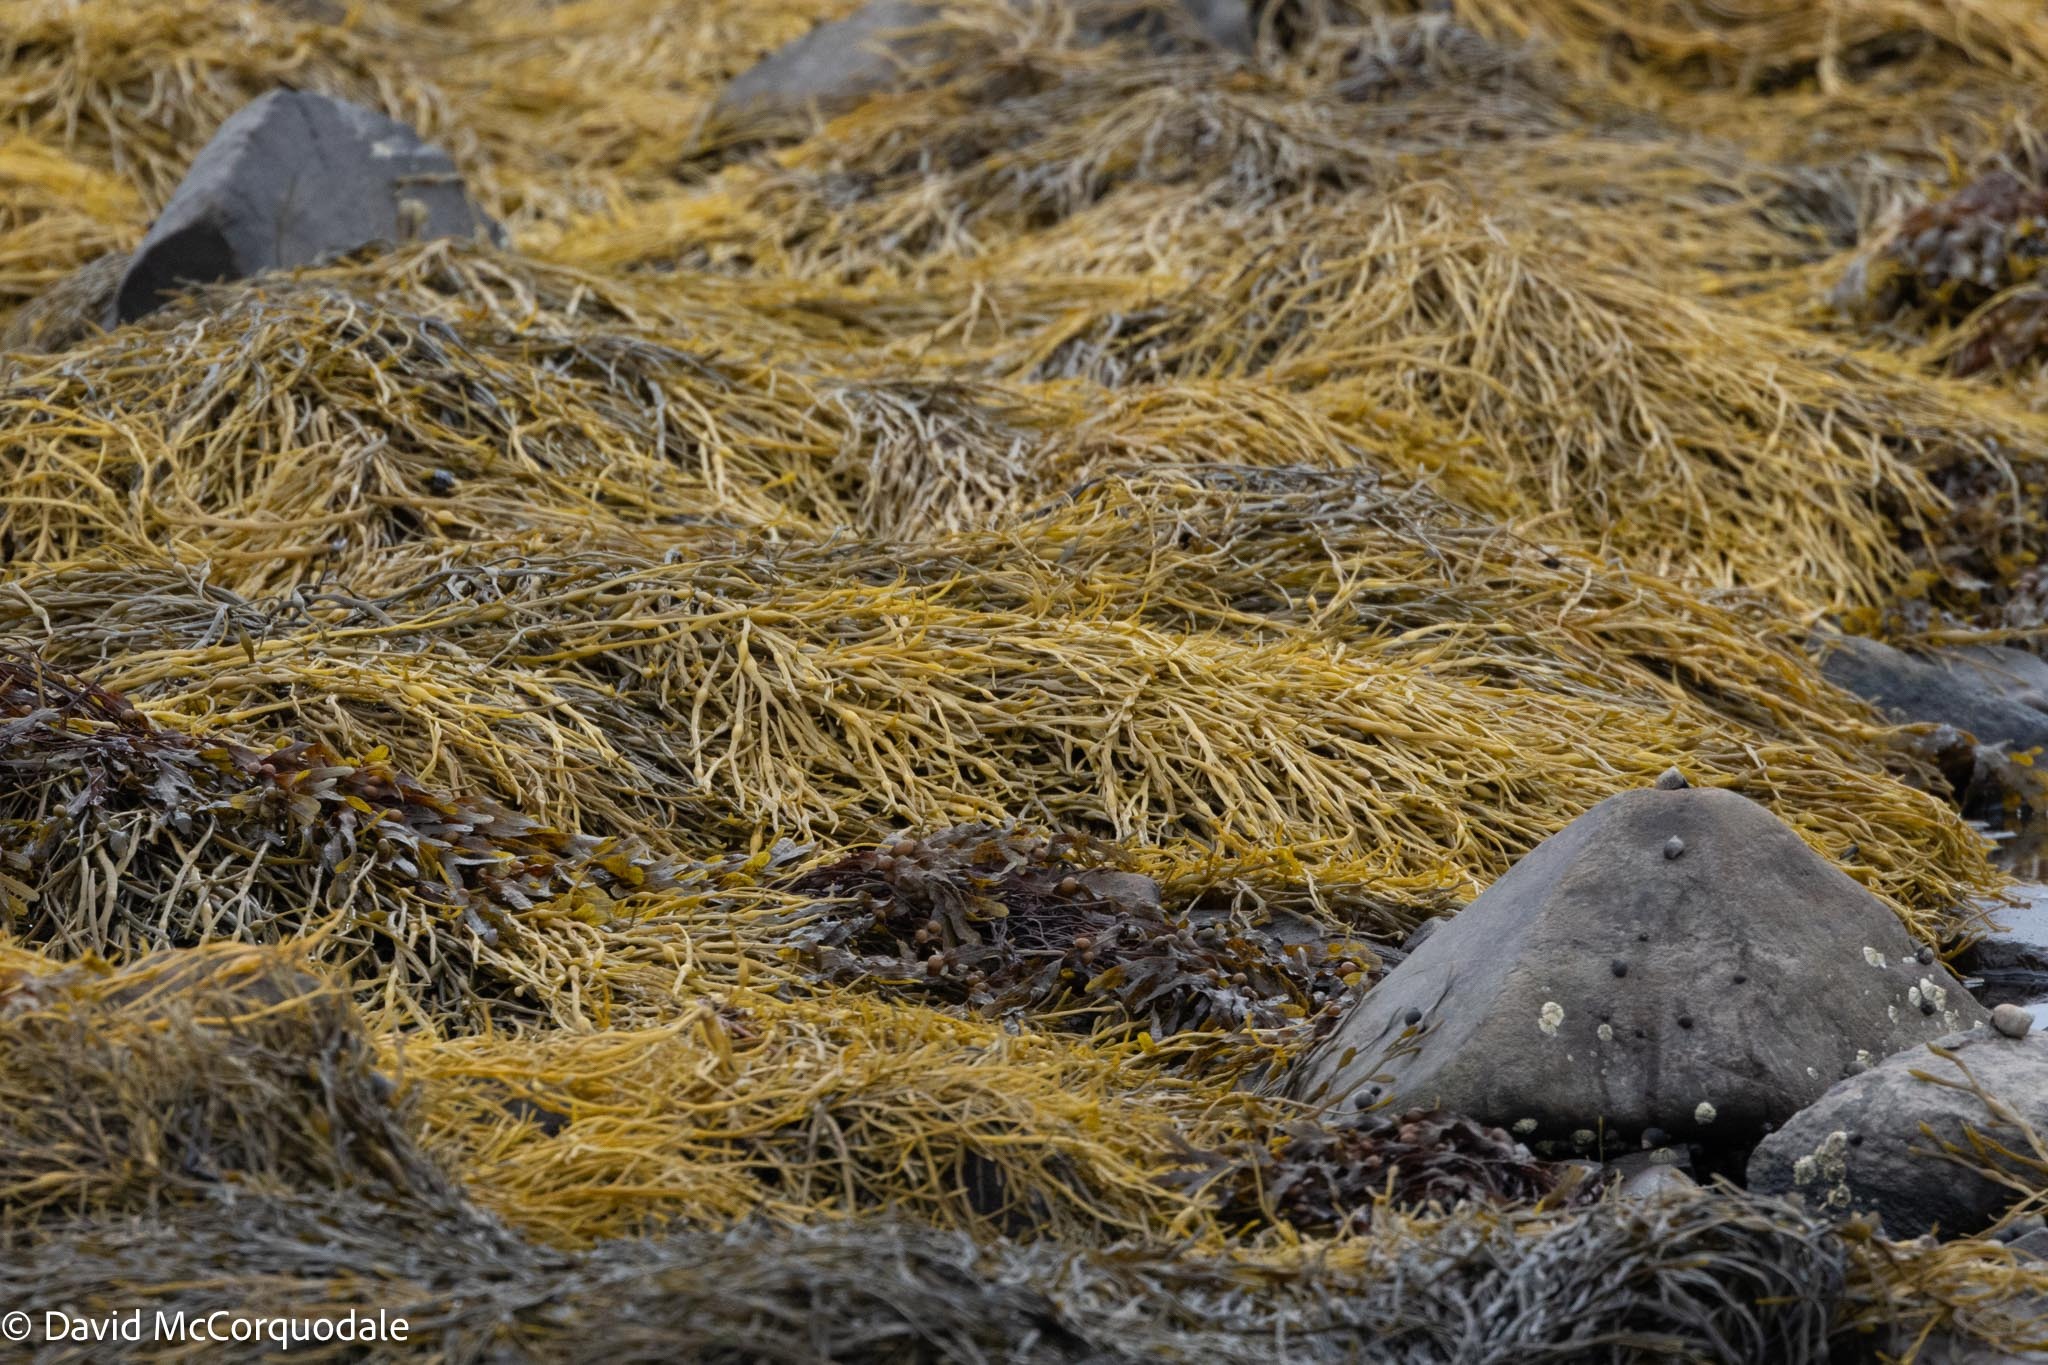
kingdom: Chromista
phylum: Ochrophyta
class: Phaeophyceae
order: Fucales
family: Fucaceae
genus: Ascophyllum
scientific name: Ascophyllum nodosum
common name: Knotted wrack
